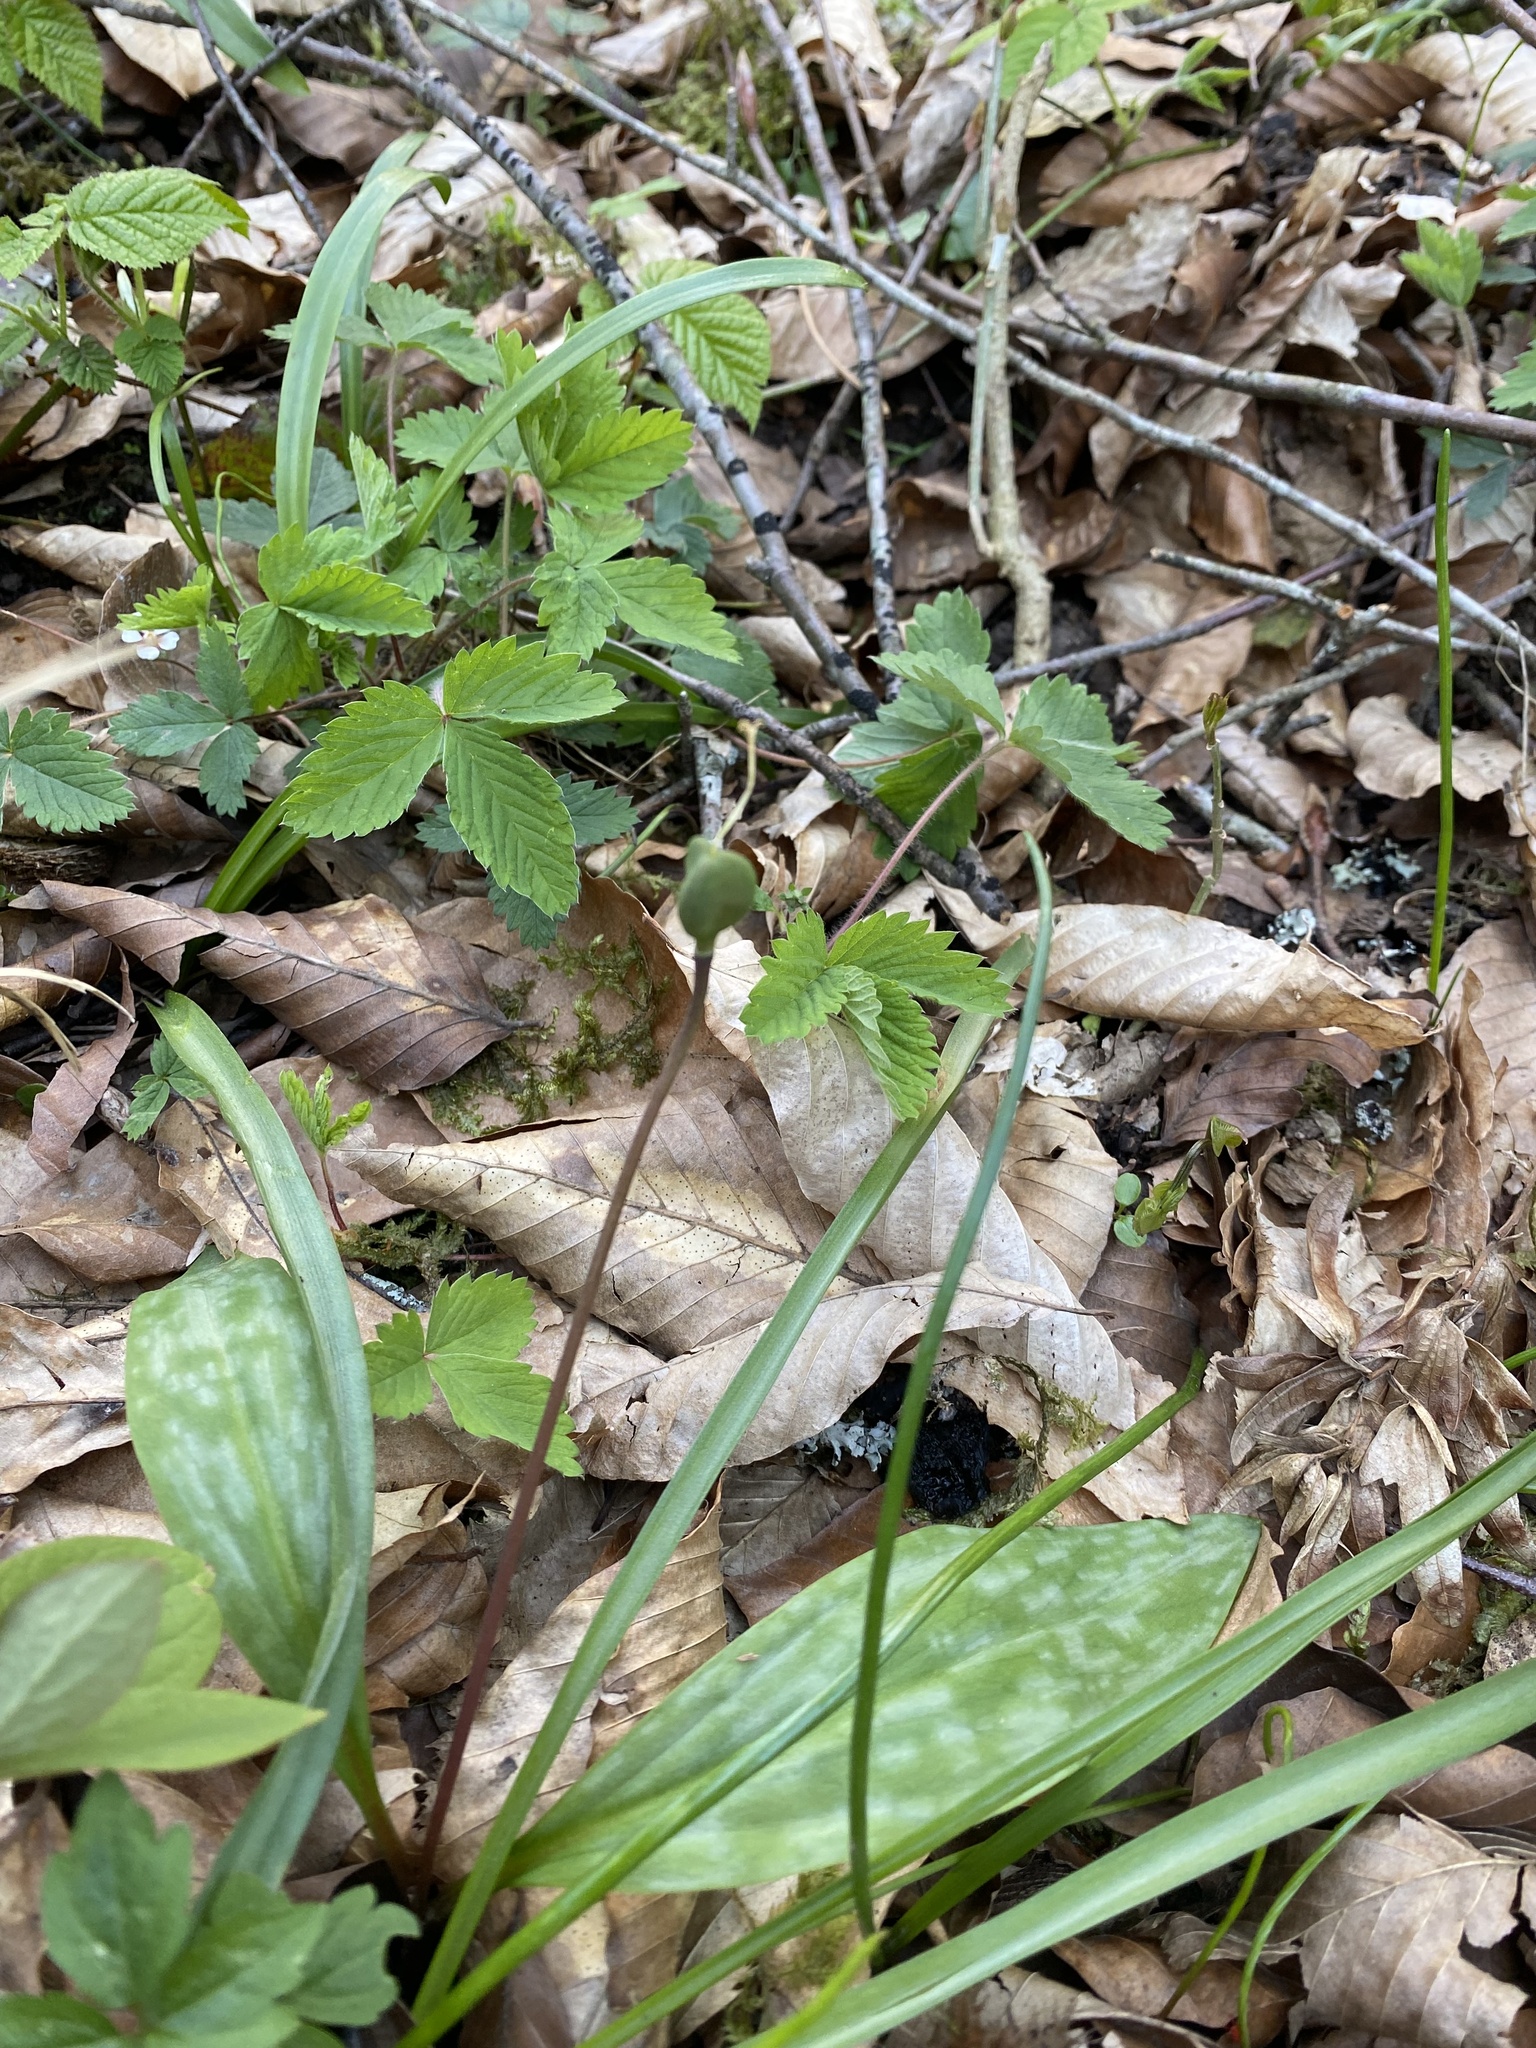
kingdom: Plantae
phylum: Tracheophyta
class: Liliopsida
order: Liliales
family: Liliaceae
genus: Erythronium
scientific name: Erythronium caucasicum
